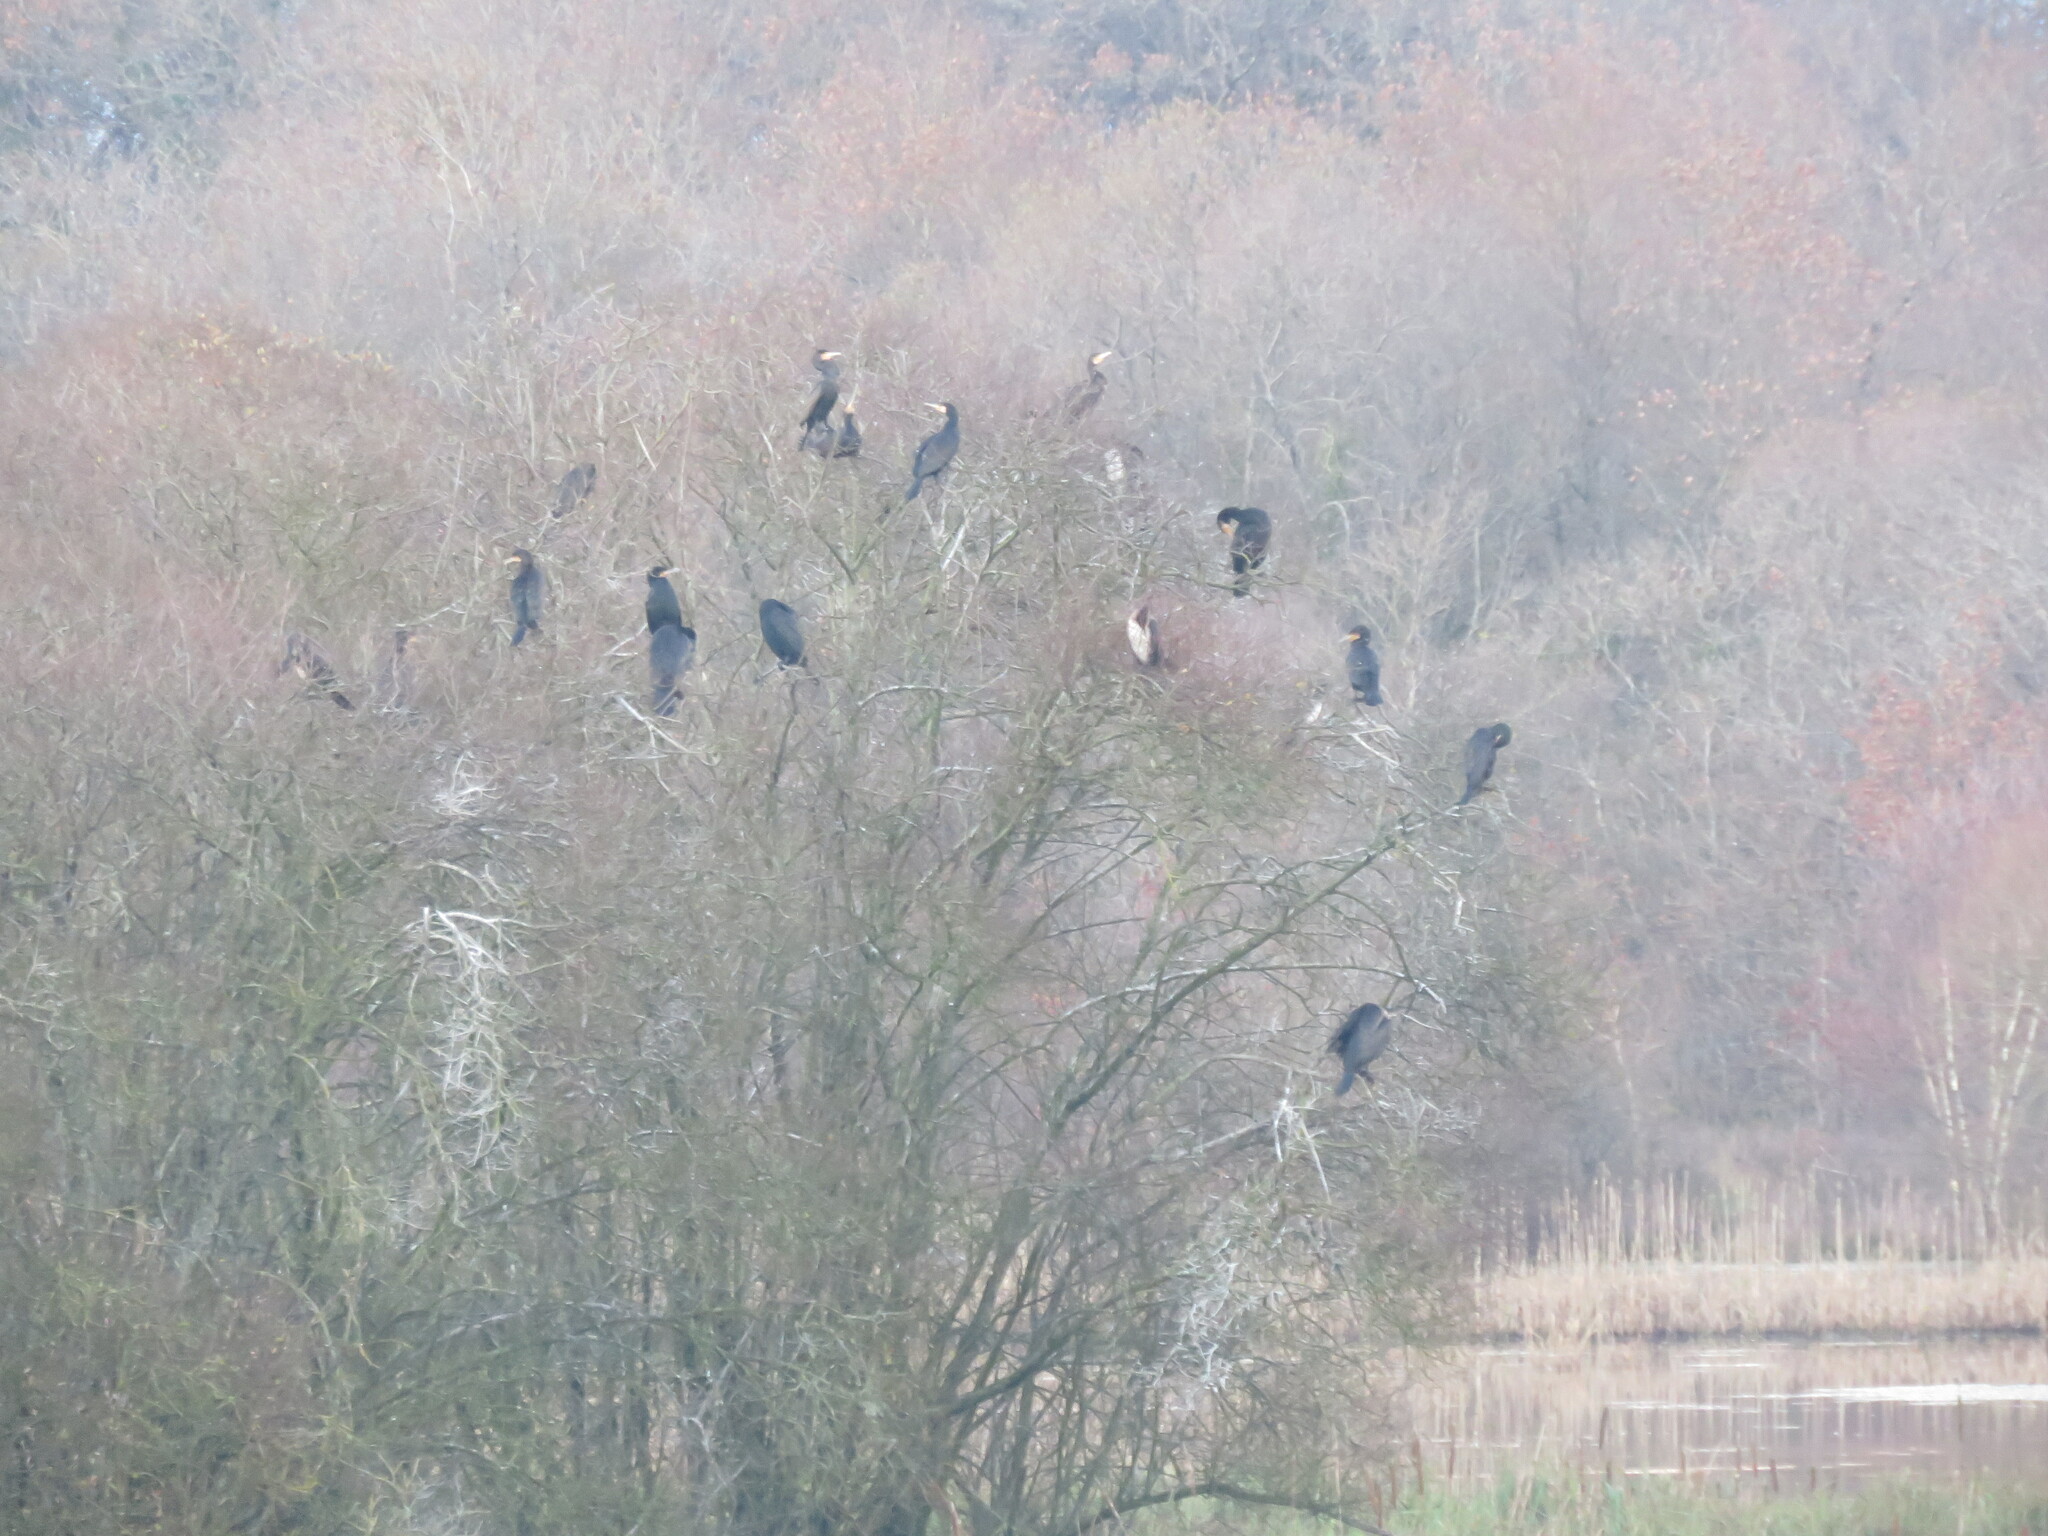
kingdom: Animalia
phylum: Chordata
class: Aves
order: Suliformes
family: Phalacrocoracidae
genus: Phalacrocorax
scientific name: Phalacrocorax carbo
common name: Great cormorant
